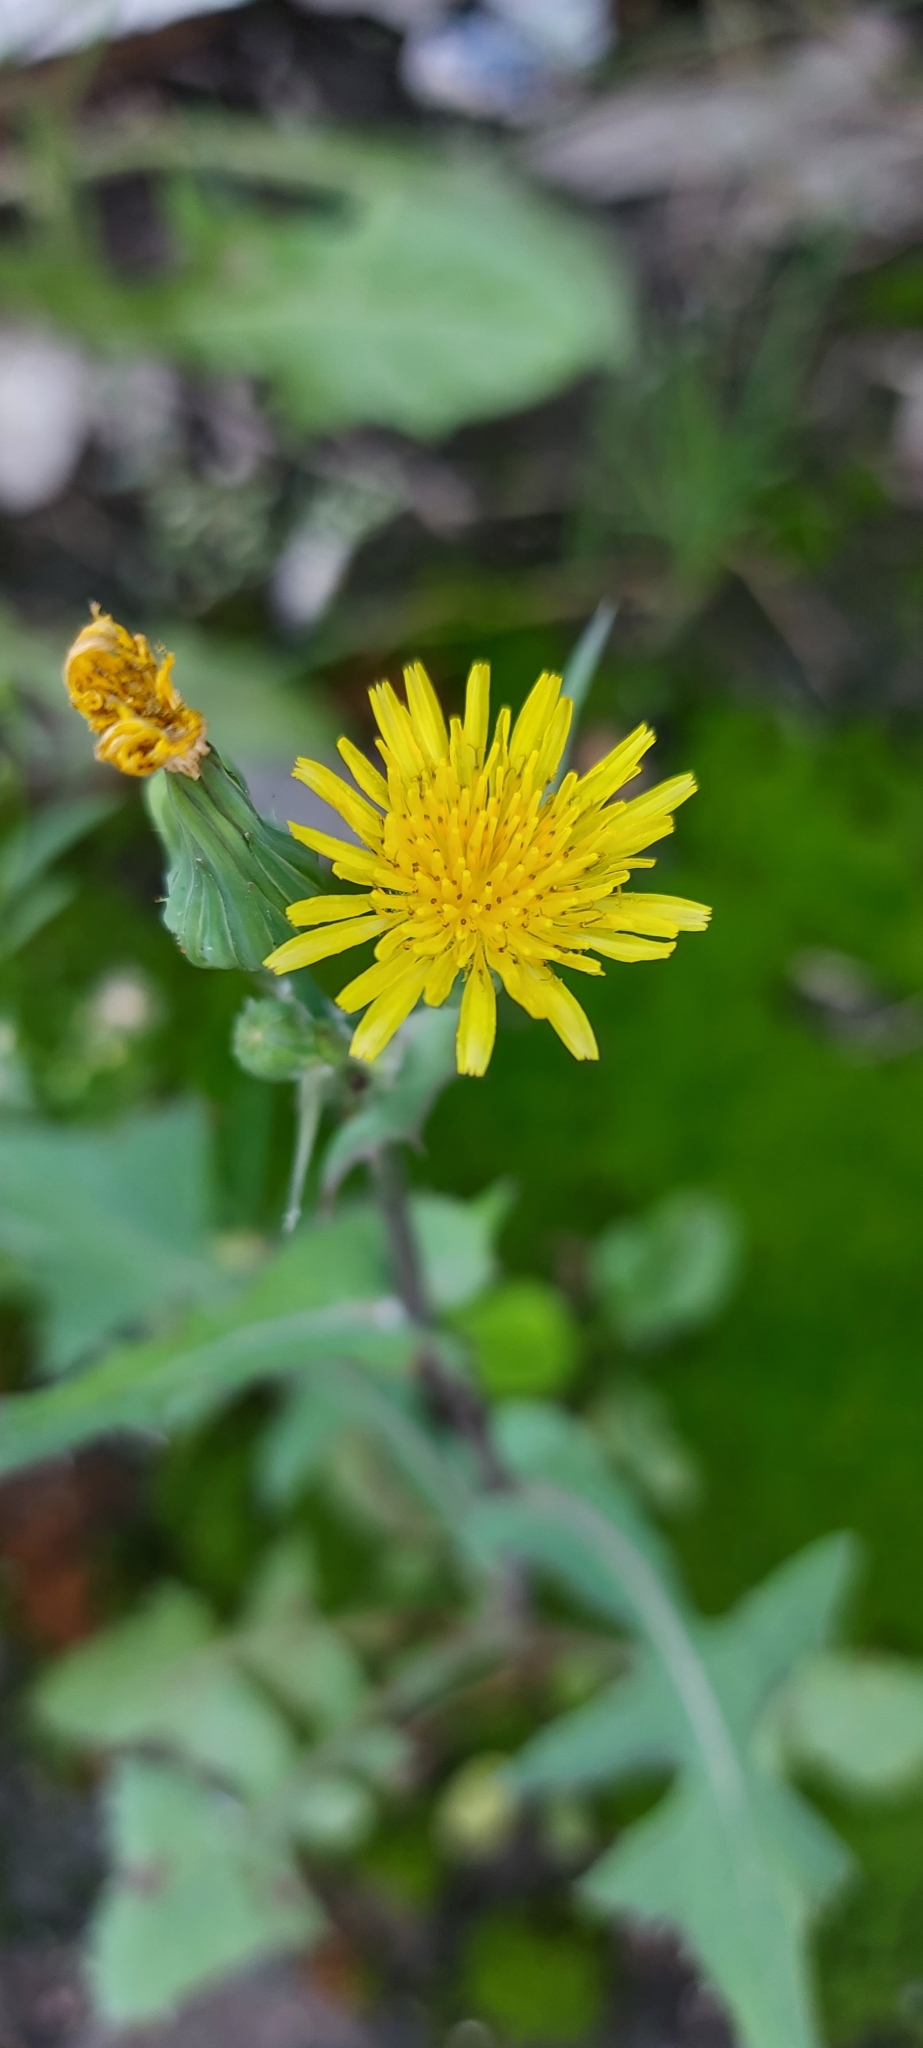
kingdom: Plantae
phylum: Tracheophyta
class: Magnoliopsida
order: Asterales
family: Asteraceae
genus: Sonchus
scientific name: Sonchus oleraceus
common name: Common sowthistle
